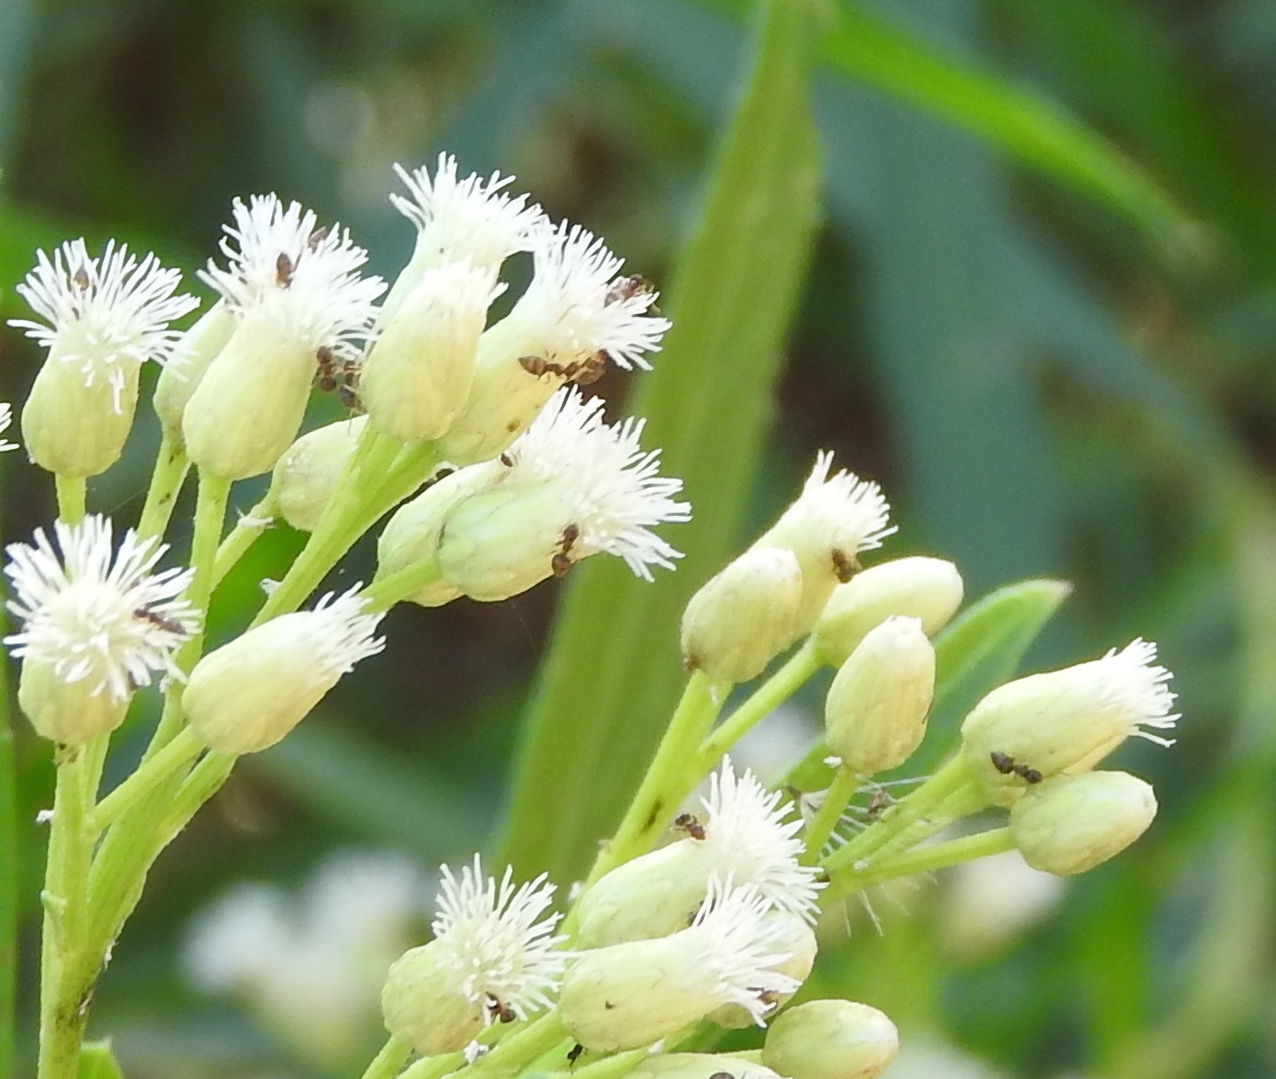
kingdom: Animalia
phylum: Arthropoda
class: Insecta
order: Hymenoptera
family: Formicidae
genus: Brachymyrmex
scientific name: Brachymyrmex
